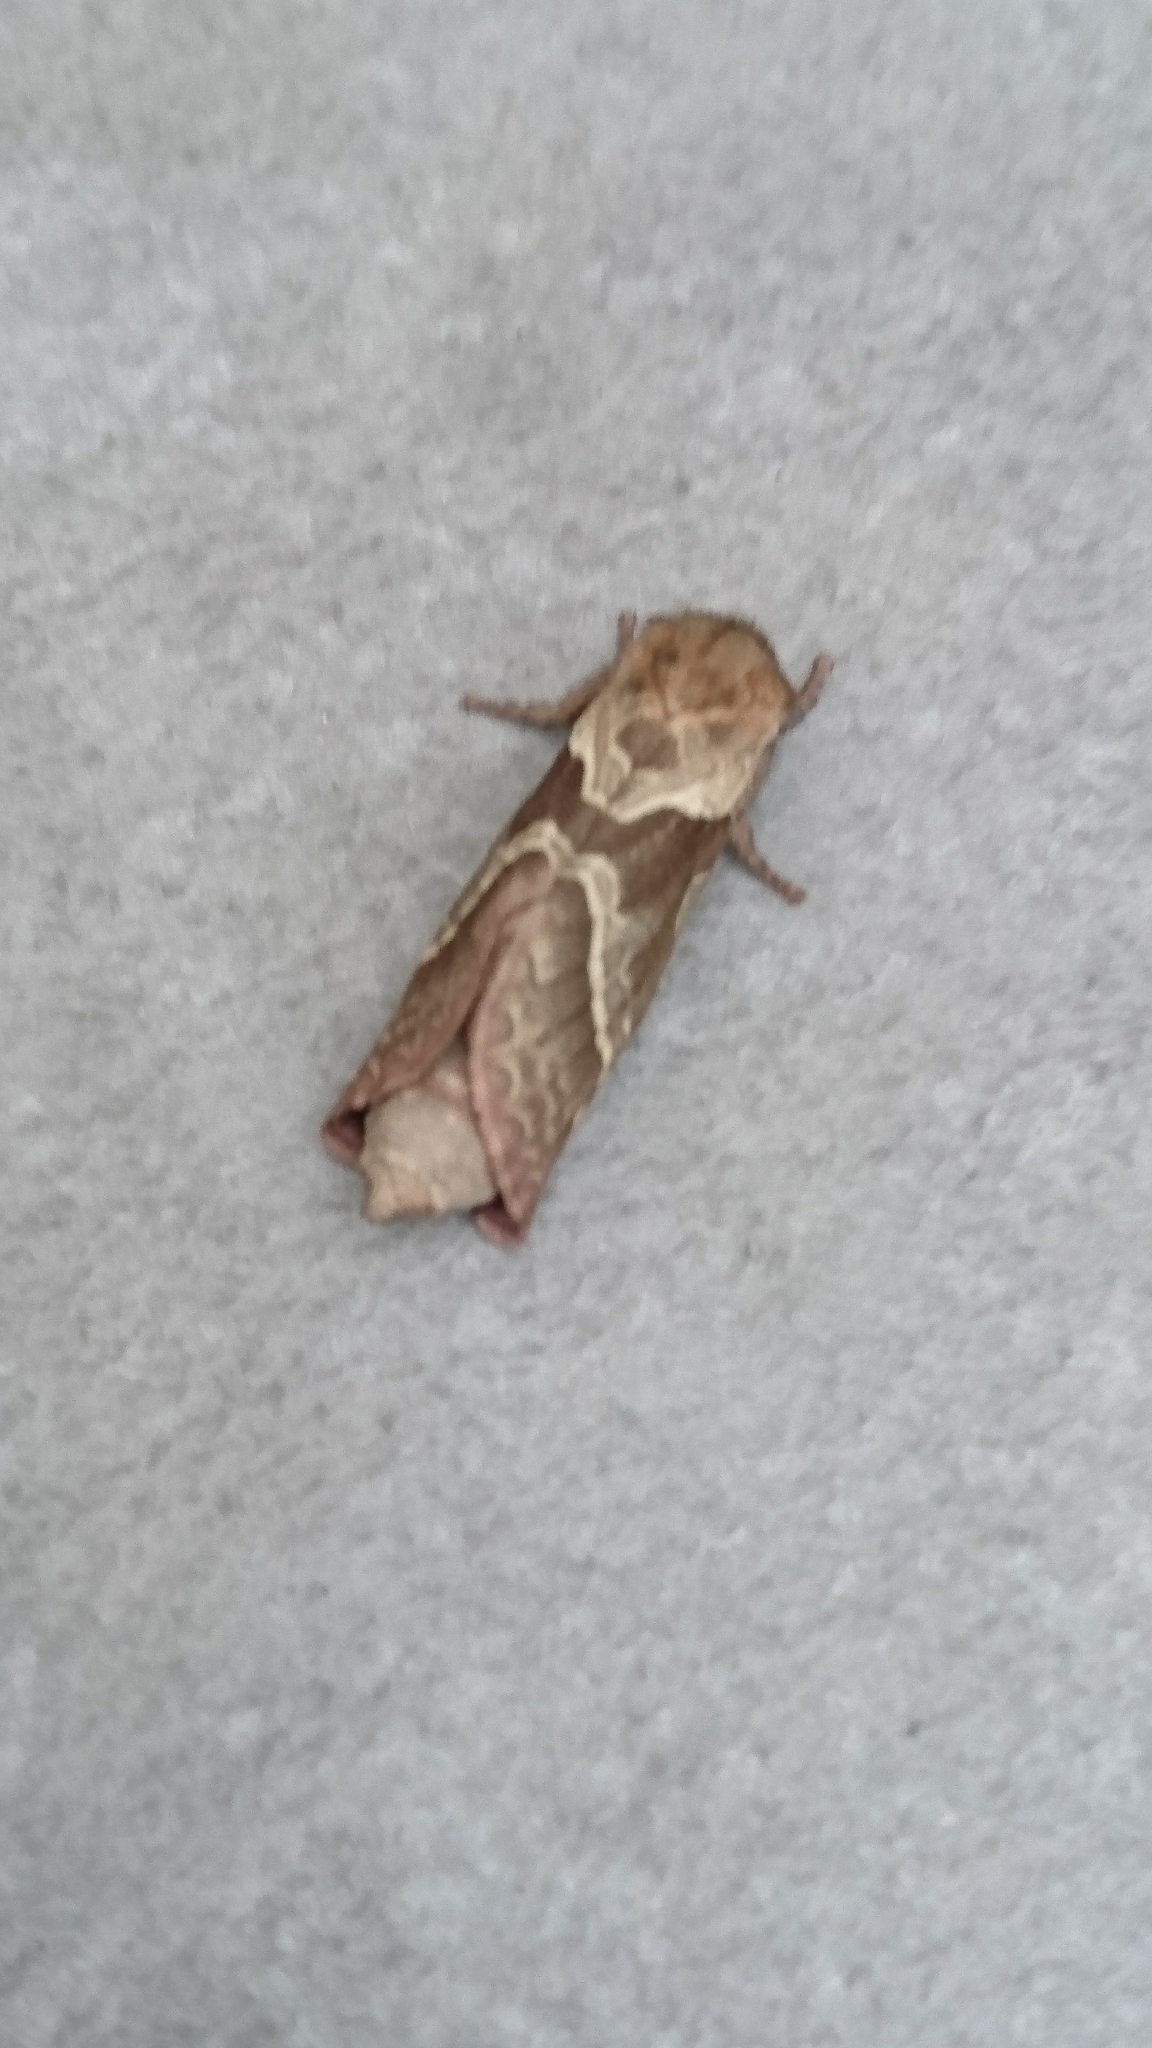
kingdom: Animalia
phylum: Arthropoda
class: Insecta
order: Lepidoptera
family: Hepialidae
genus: Triodia
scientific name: Triodia sylvina
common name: Orange swift
